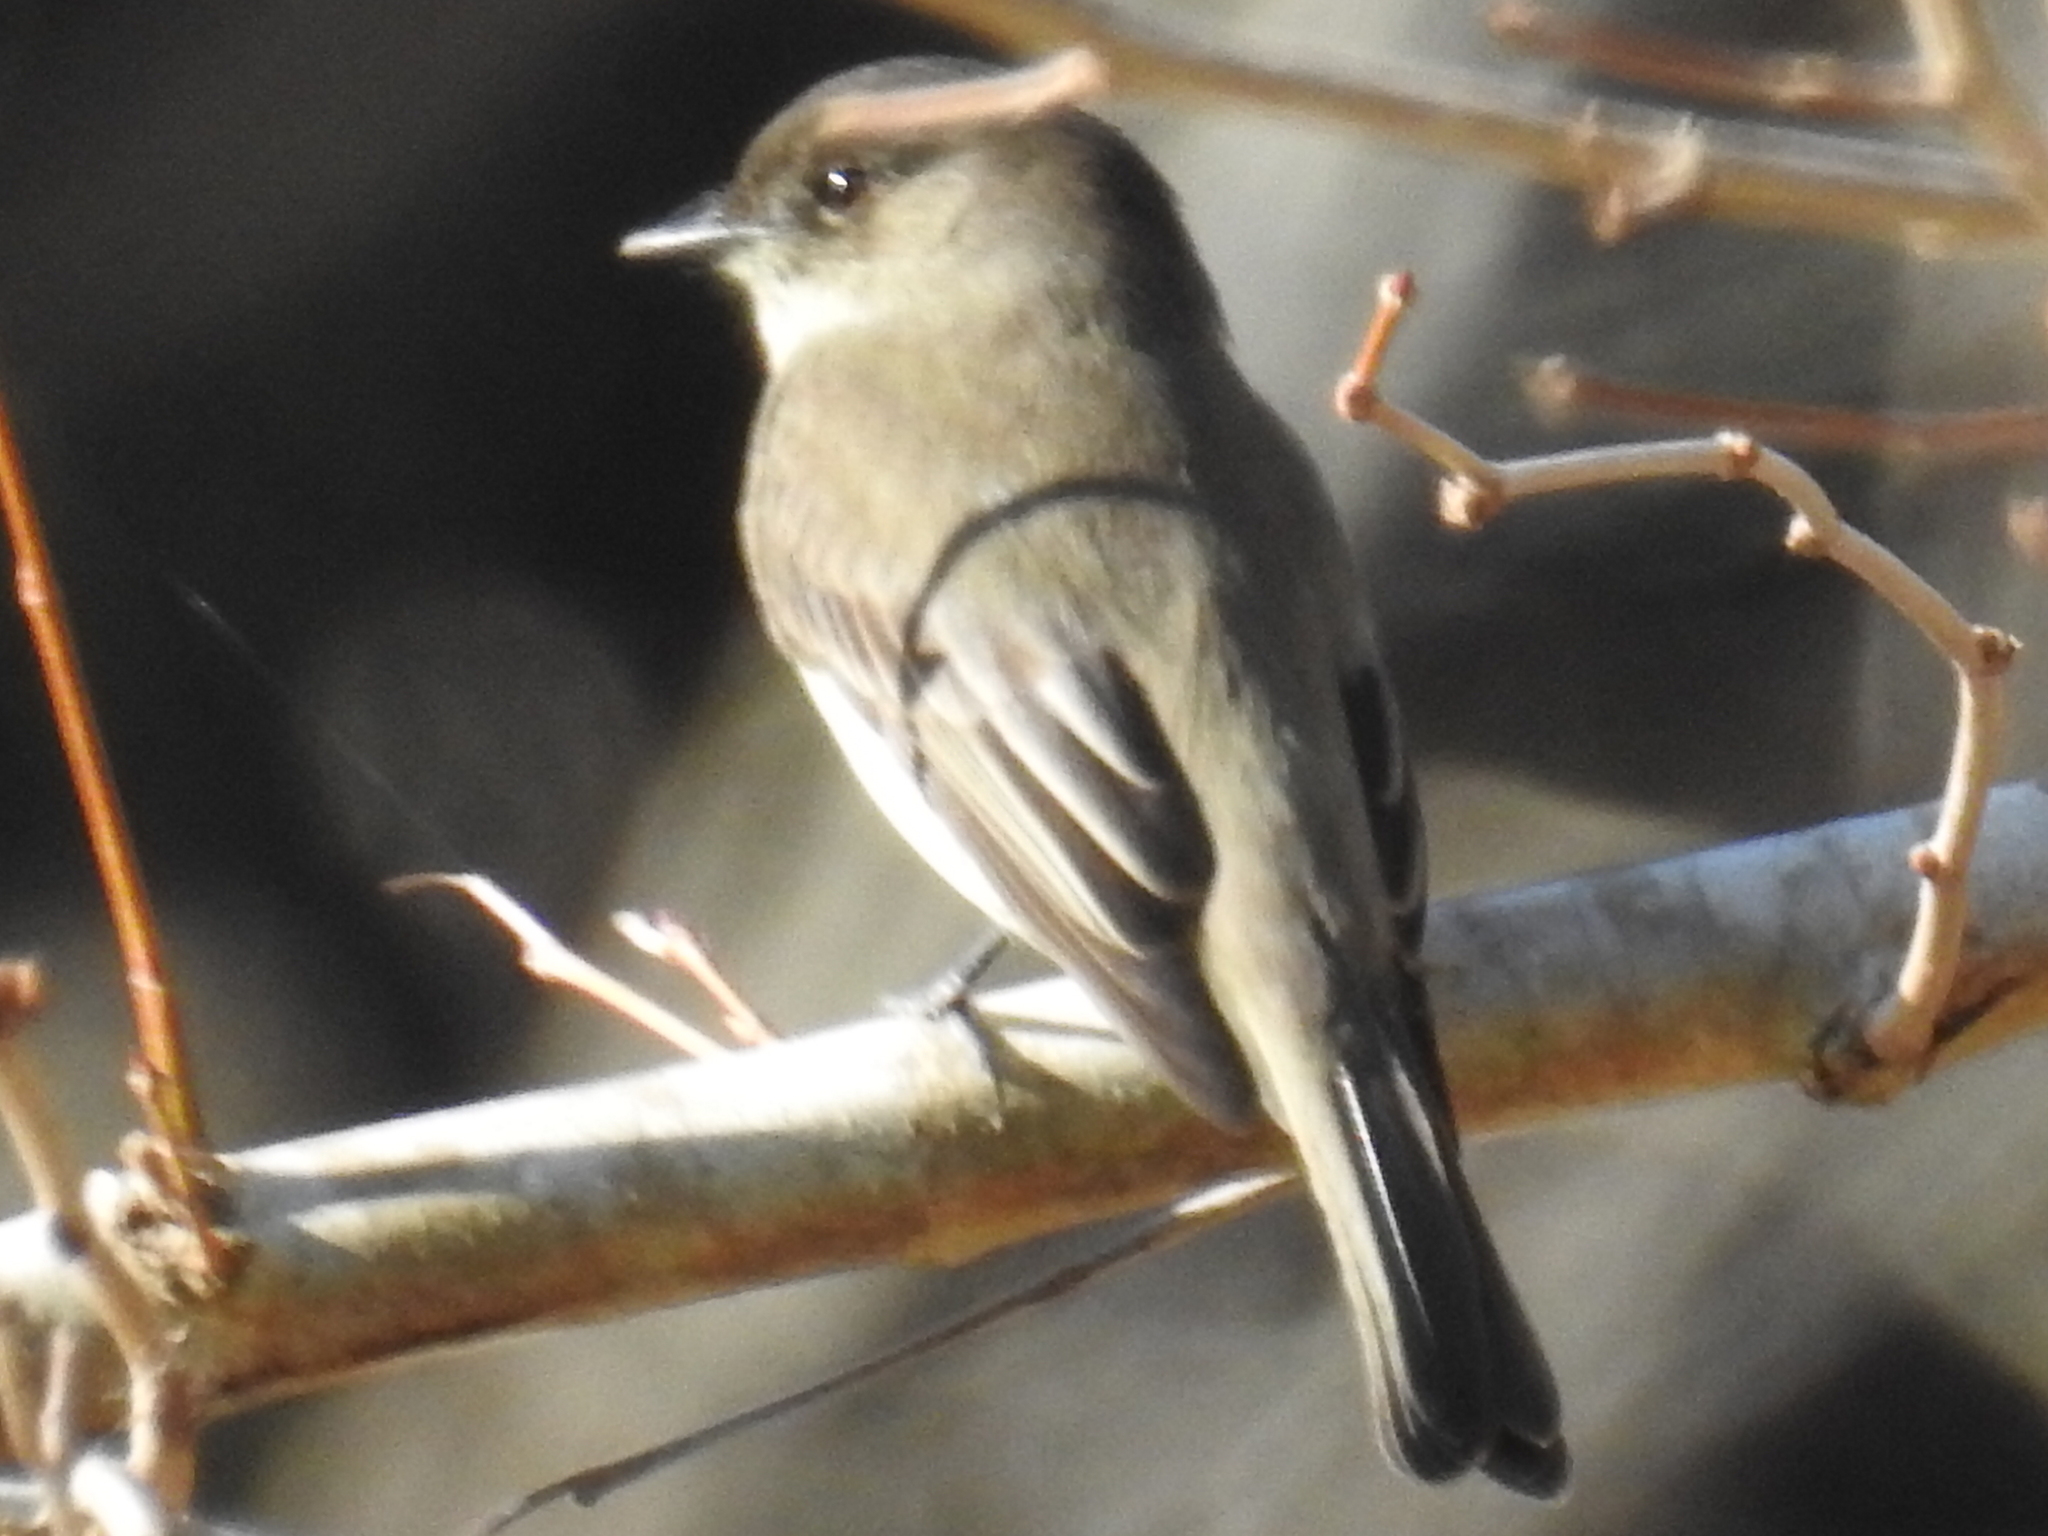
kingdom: Animalia
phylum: Chordata
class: Aves
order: Passeriformes
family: Tyrannidae
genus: Sayornis
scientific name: Sayornis phoebe
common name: Eastern phoebe
